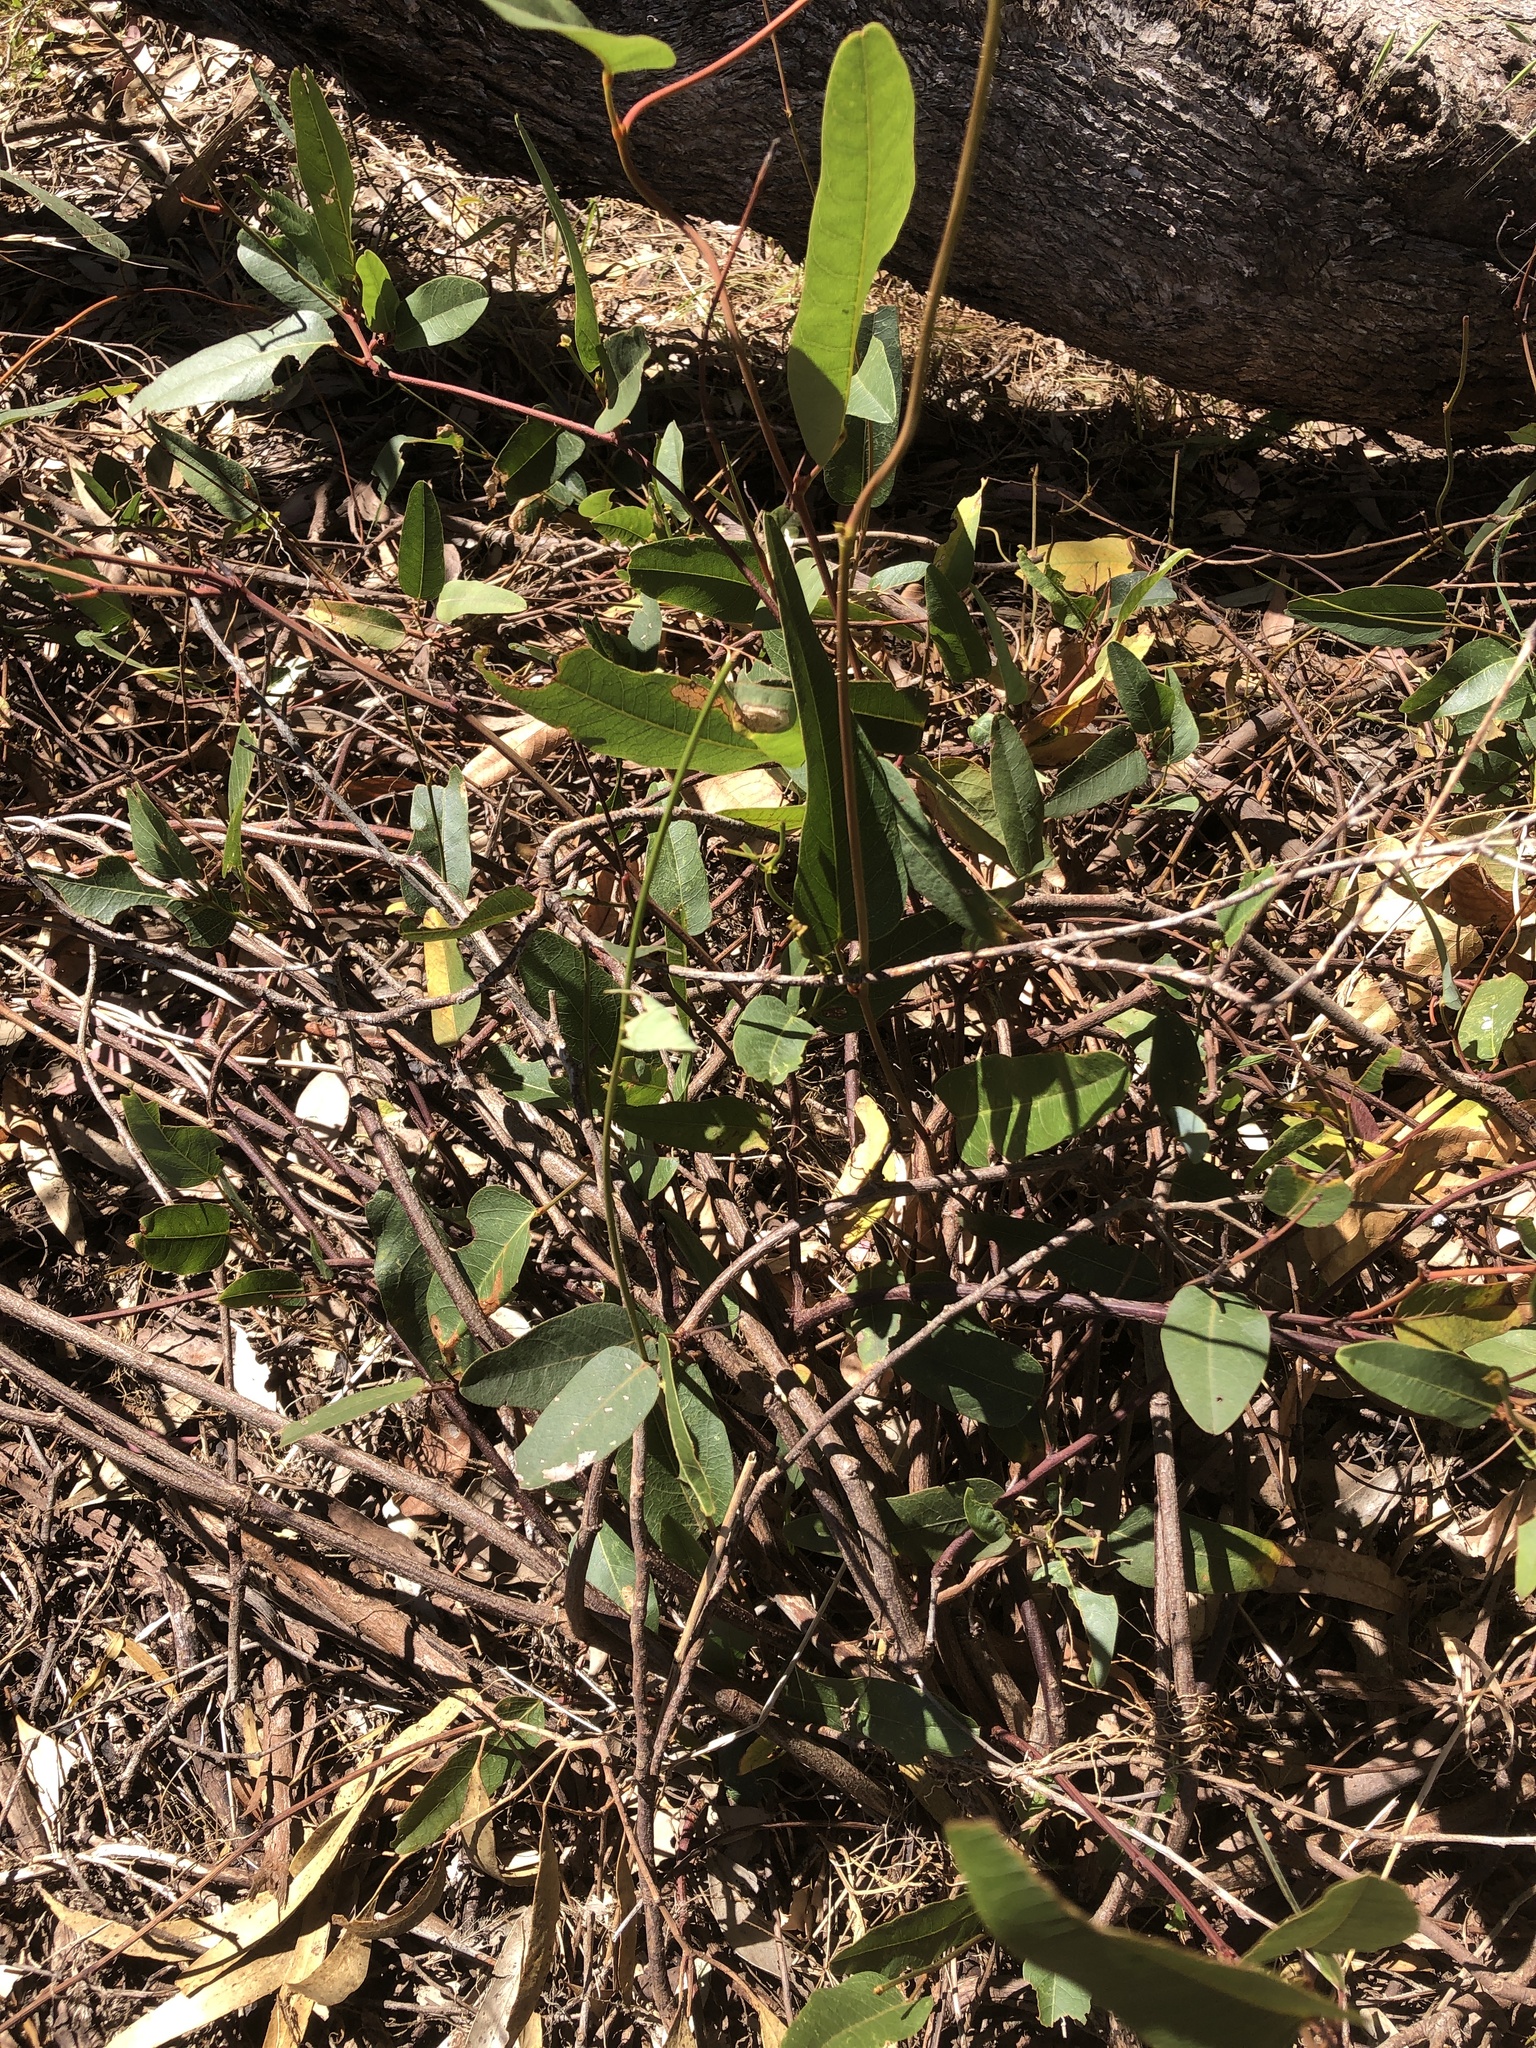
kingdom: Plantae
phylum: Tracheophyta
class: Magnoliopsida
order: Fabales
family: Fabaceae
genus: Hardenbergia
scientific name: Hardenbergia violacea
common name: Coral-pea
